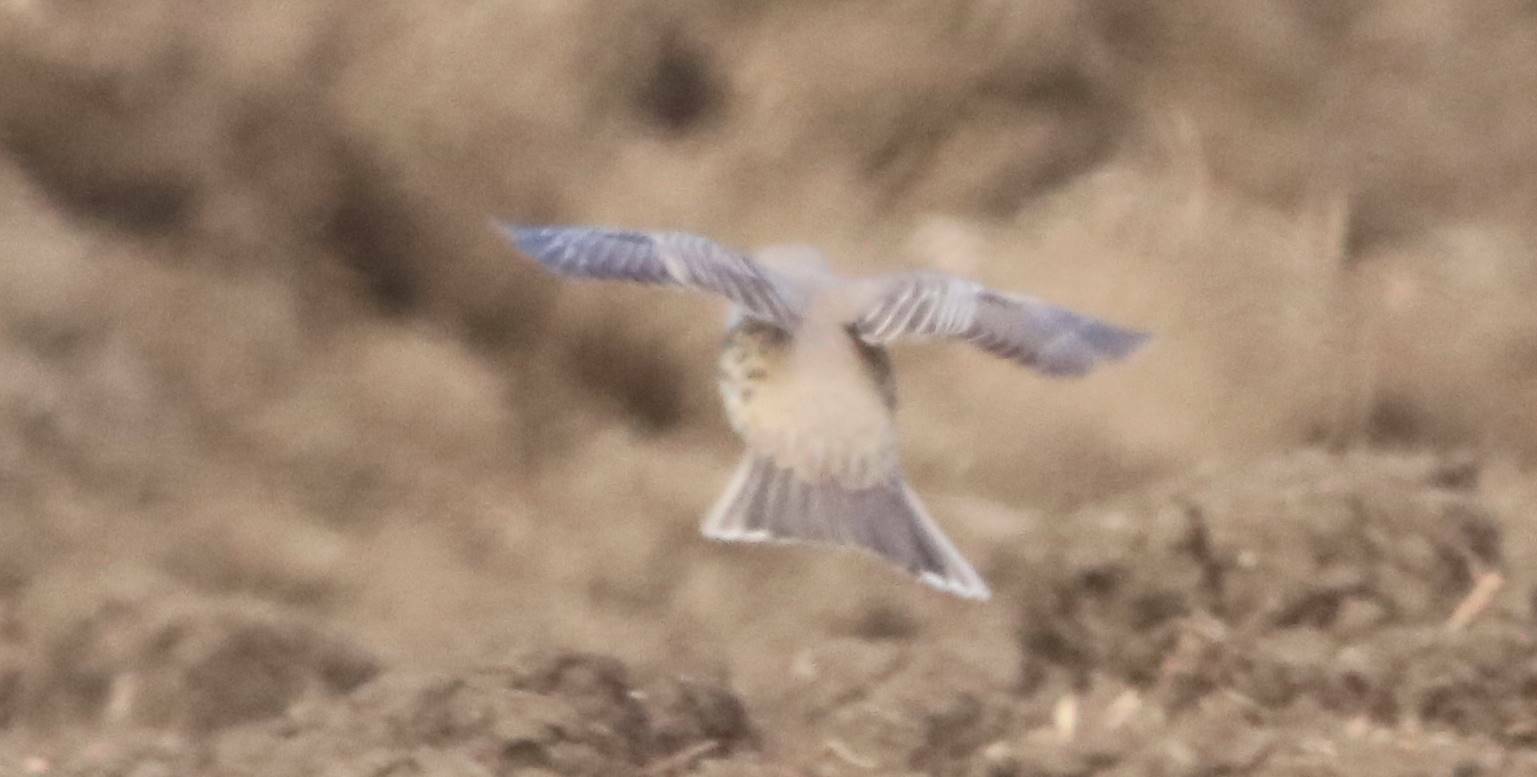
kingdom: Animalia
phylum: Chordata
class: Aves
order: Passeriformes
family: Alaudidae
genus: Alauda
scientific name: Alauda arvensis
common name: Eurasian skylark
